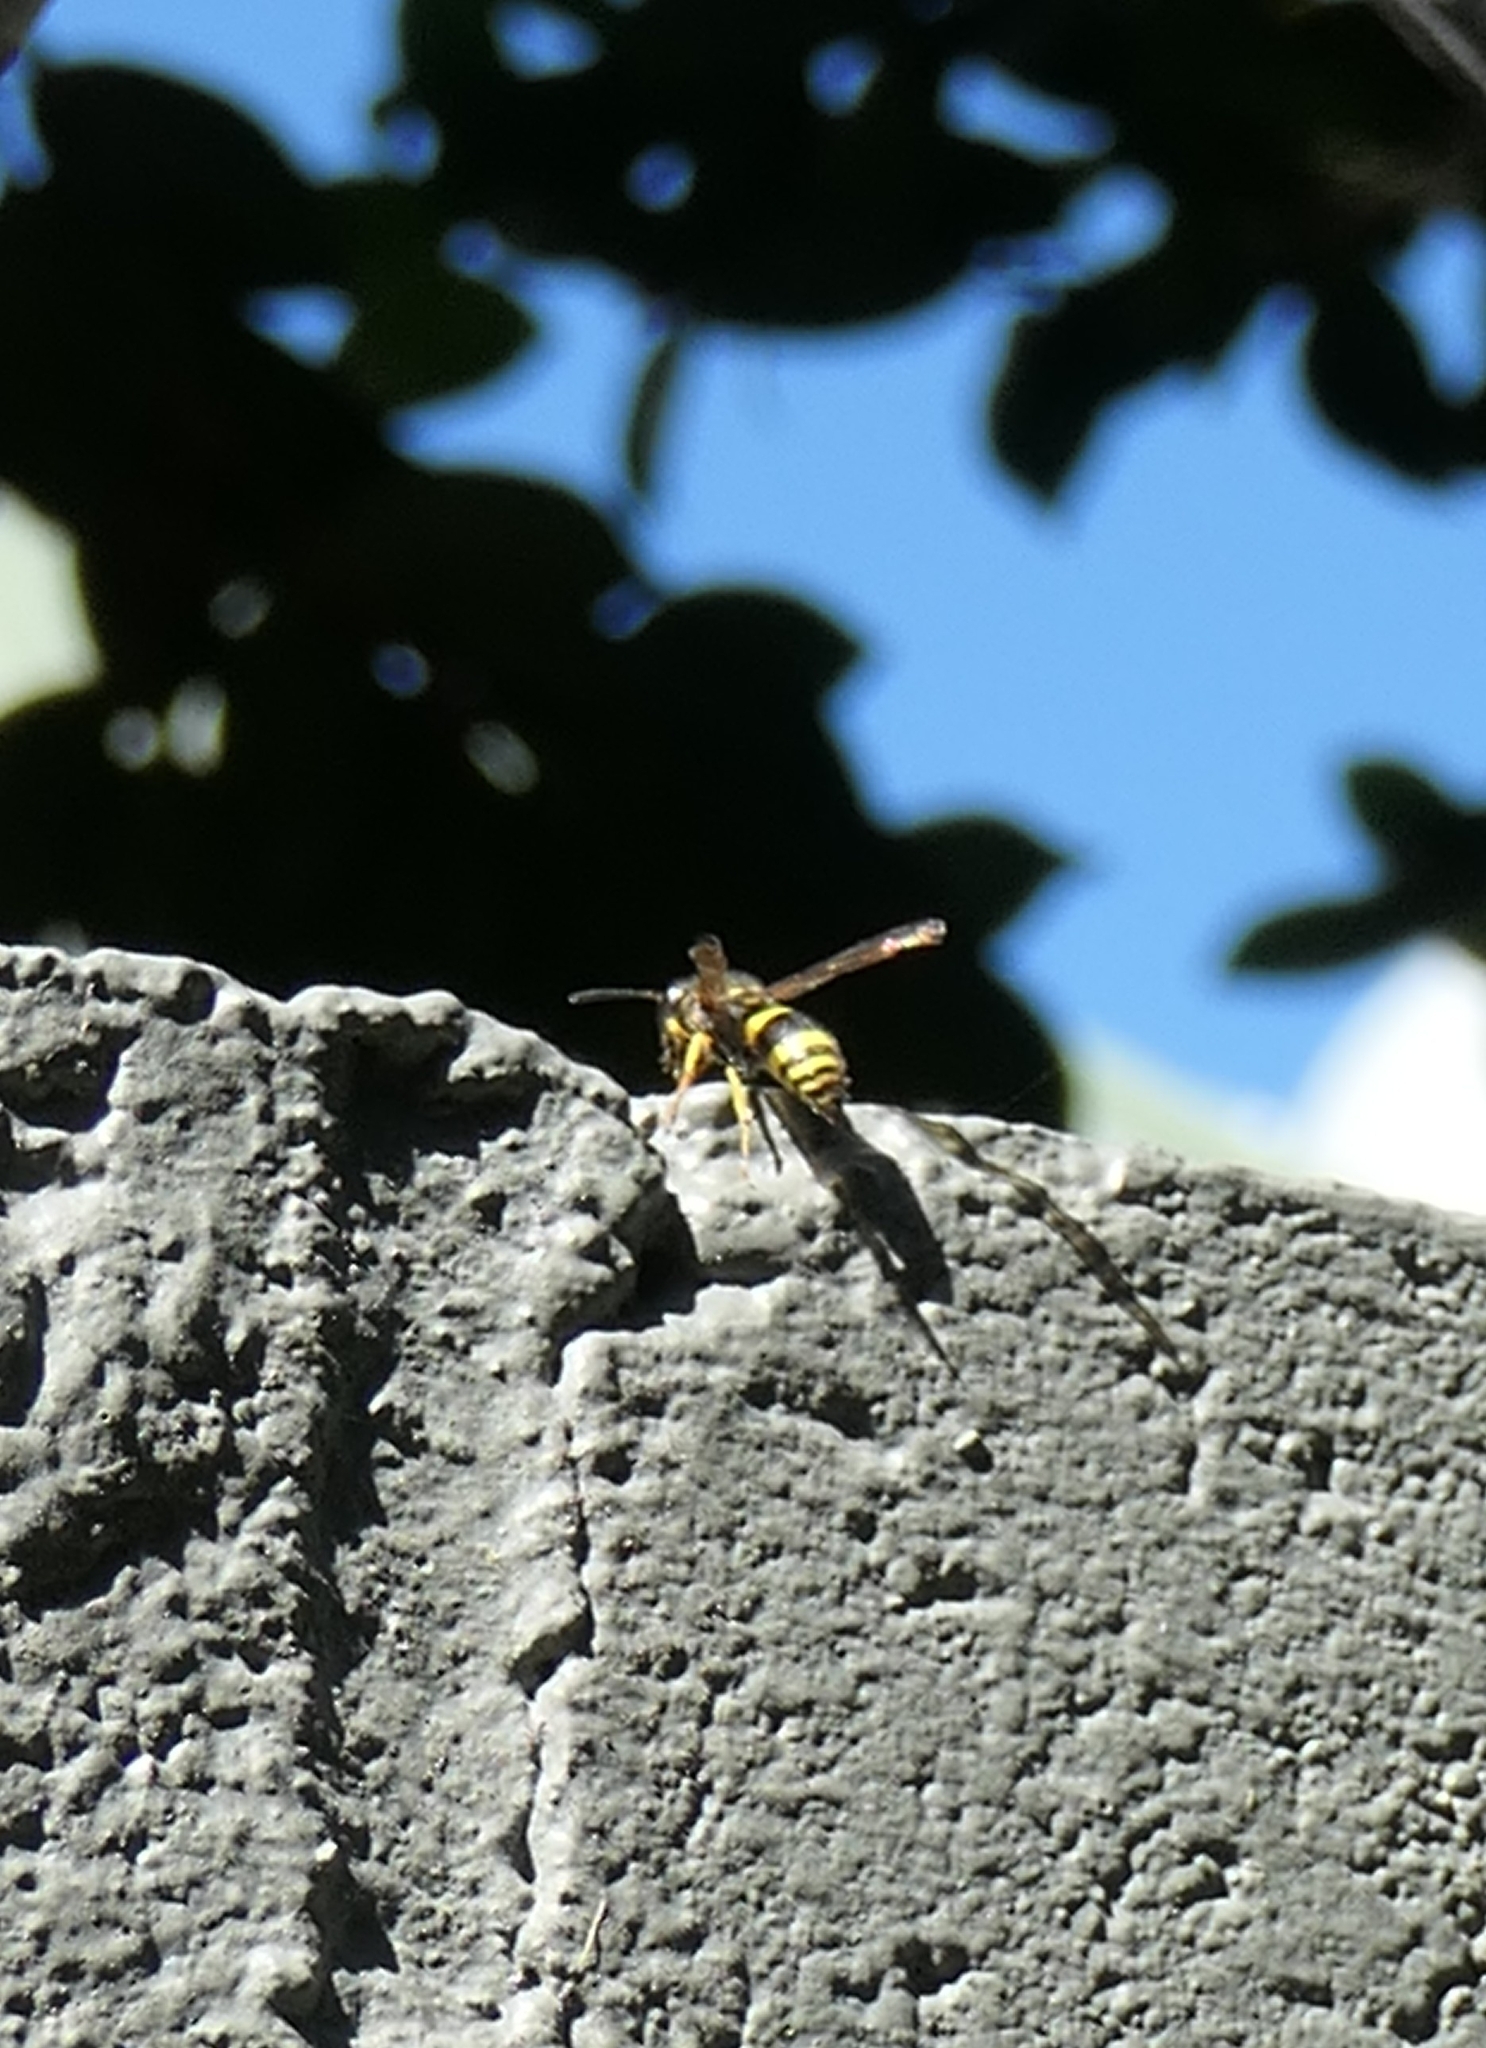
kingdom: Animalia
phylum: Arthropoda
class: Insecta
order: Hymenoptera
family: Vespidae
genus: Ancistrocerus
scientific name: Ancistrocerus gazella
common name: European tube wasp
